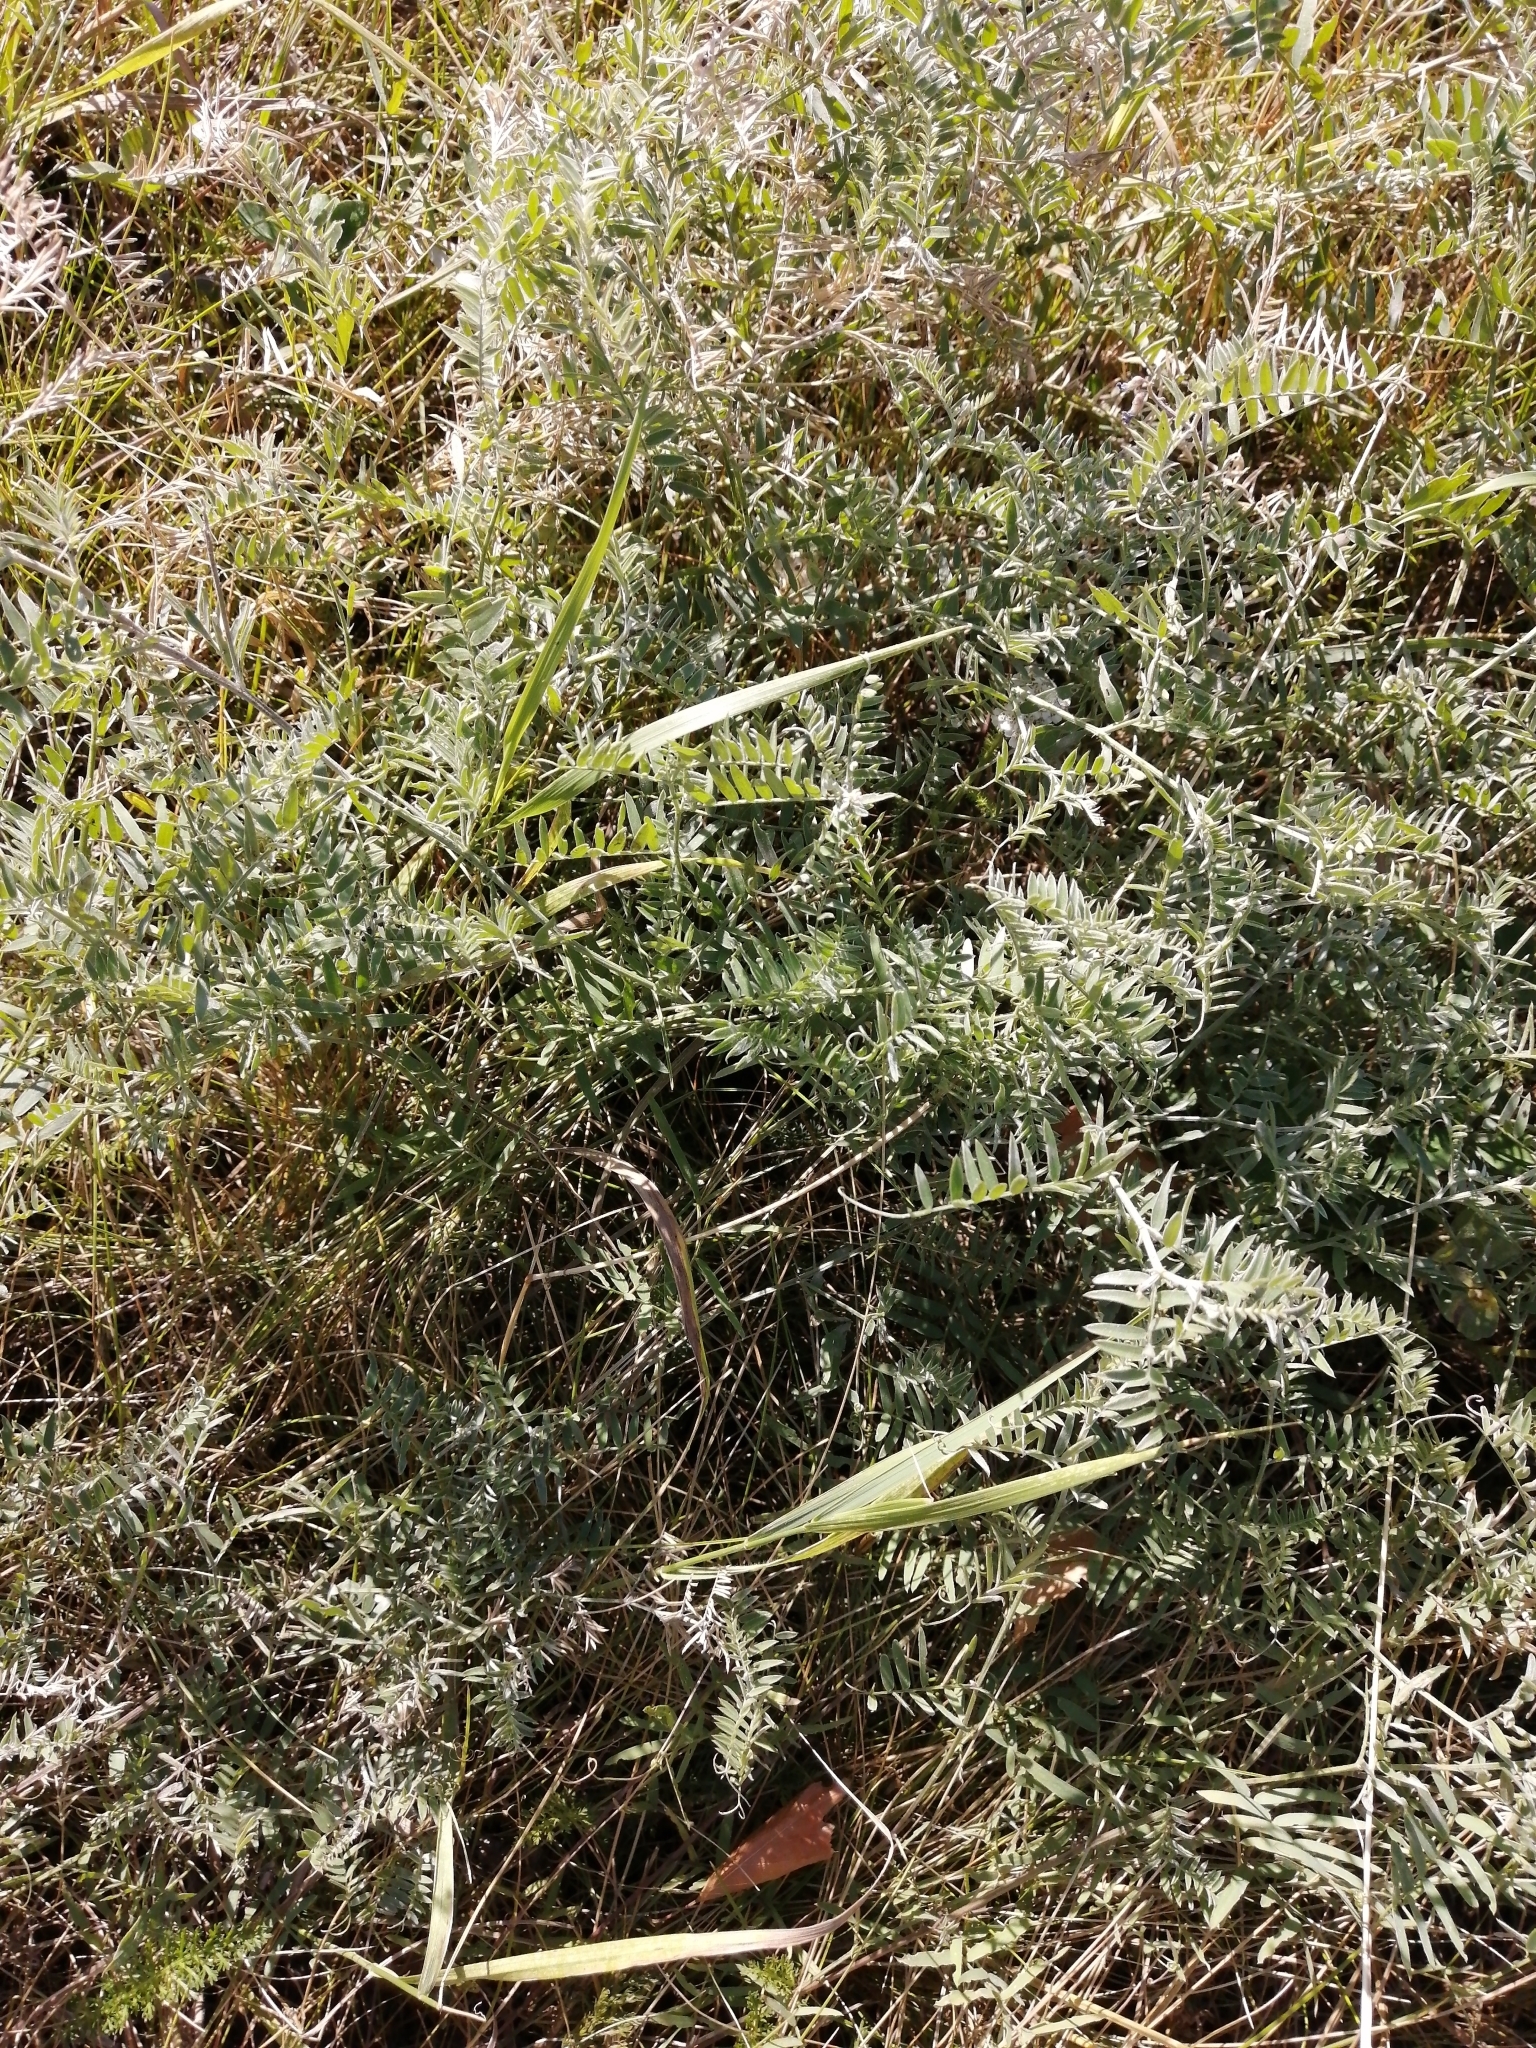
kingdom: Plantae
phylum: Tracheophyta
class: Magnoliopsida
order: Fabales
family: Fabaceae
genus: Vicia
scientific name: Vicia cracca
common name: Bird vetch
